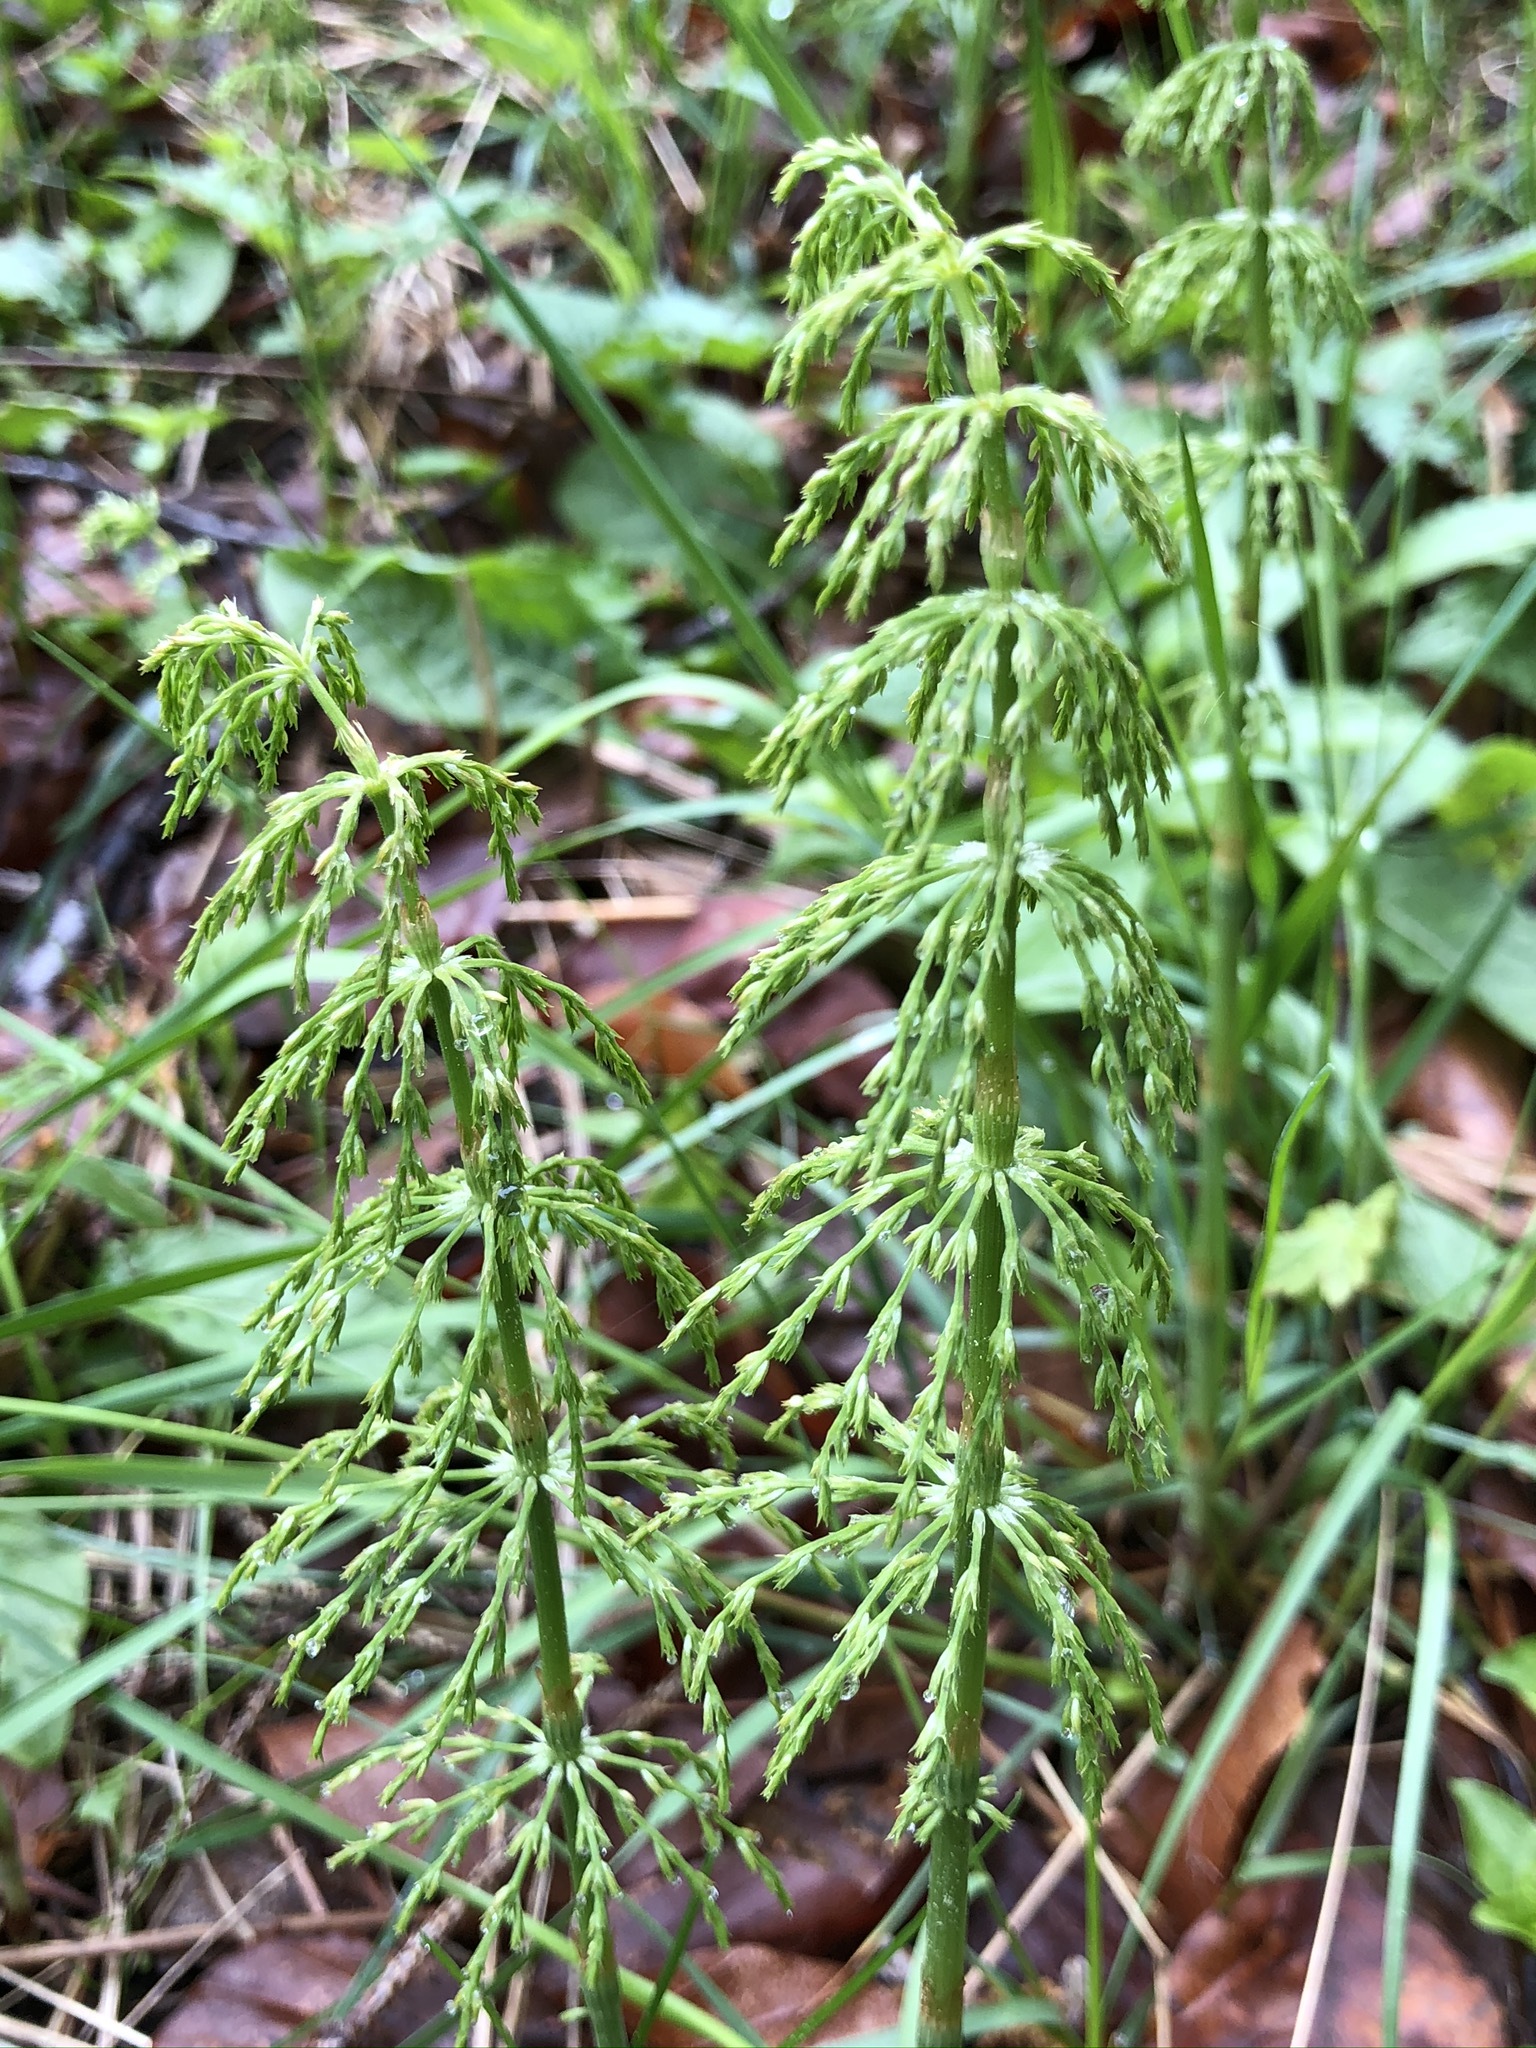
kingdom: Plantae
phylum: Tracheophyta
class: Polypodiopsida
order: Equisetales
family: Equisetaceae
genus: Equisetum
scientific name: Equisetum sylvaticum
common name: Wood horsetail
